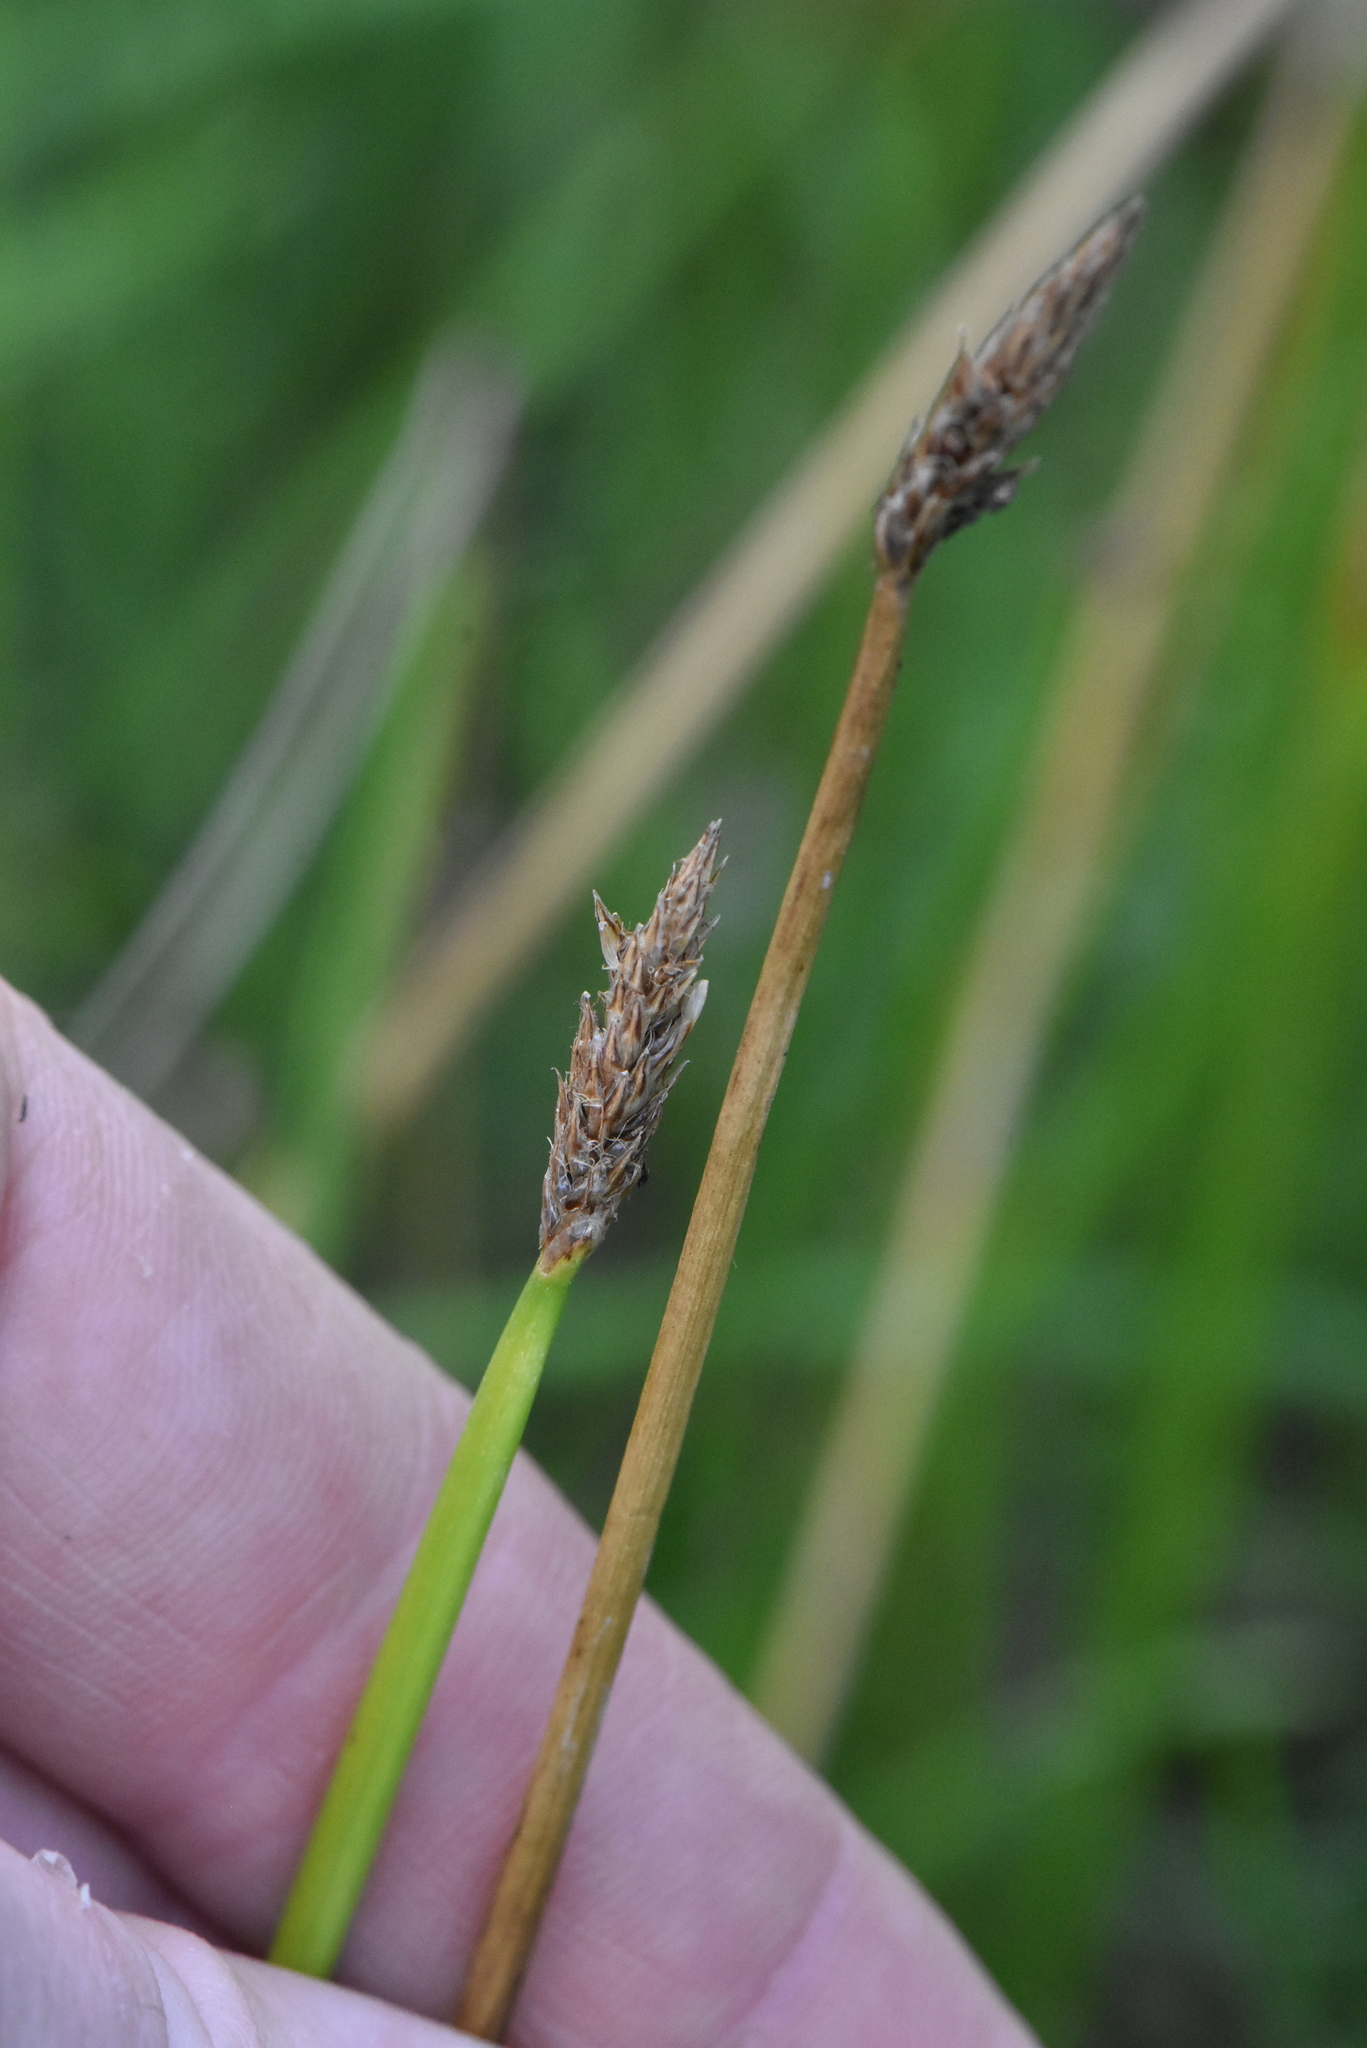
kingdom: Plantae
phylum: Tracheophyta
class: Liliopsida
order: Poales
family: Cyperaceae
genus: Eleocharis
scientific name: Eleocharis palustris
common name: Common spike-rush
